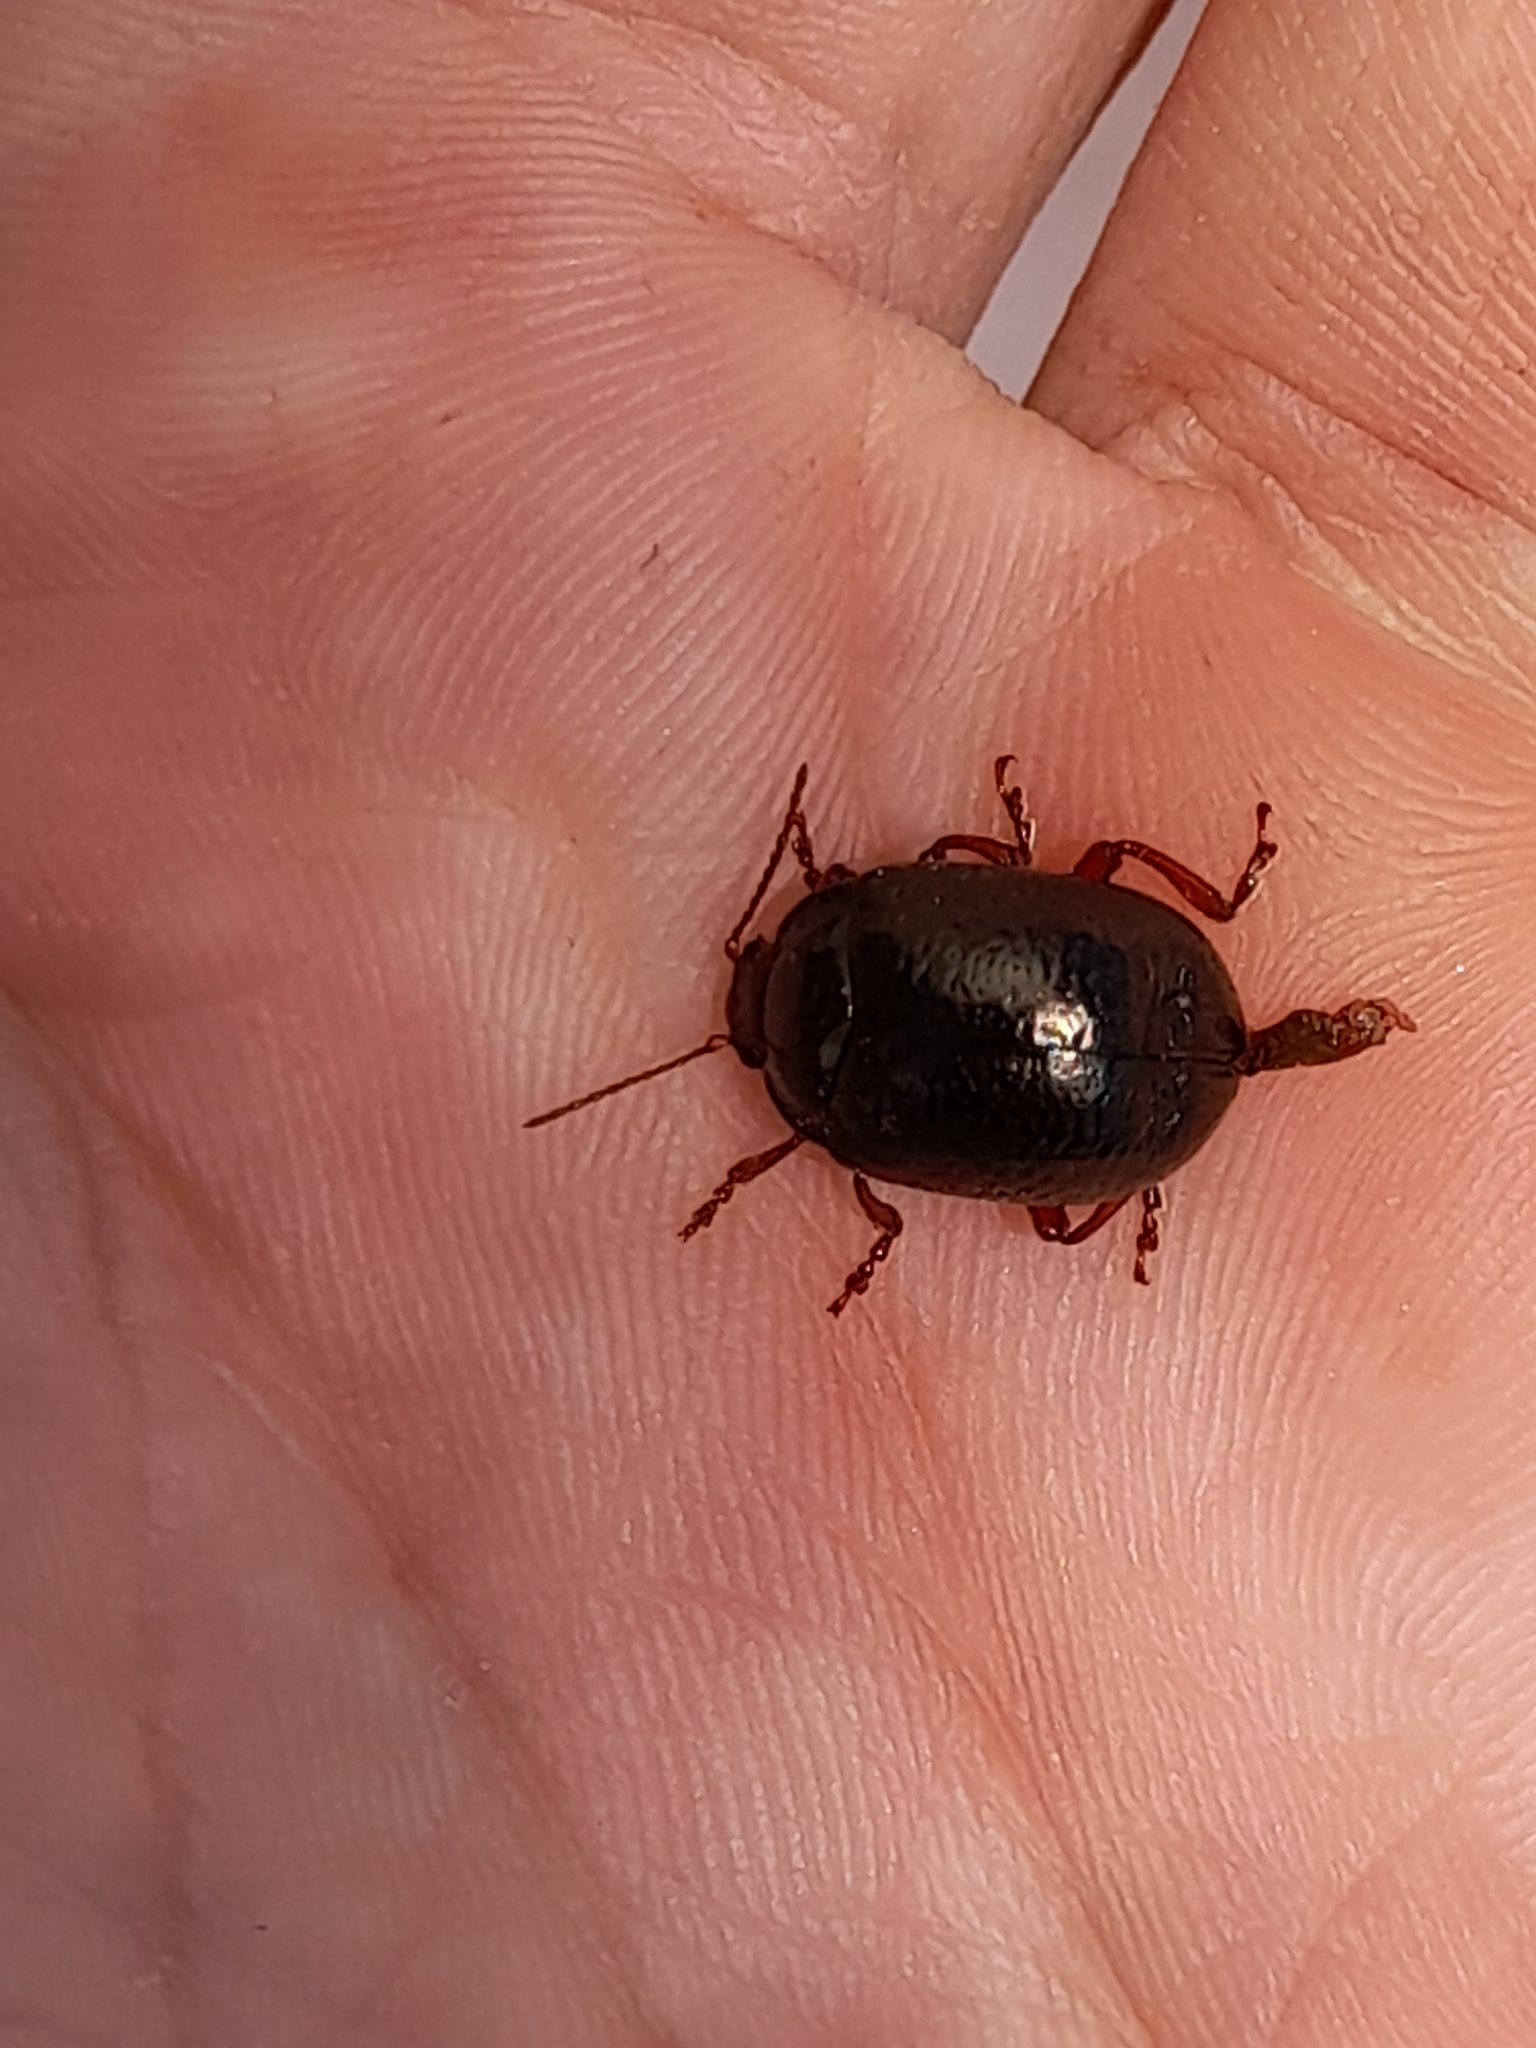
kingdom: Animalia
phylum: Arthropoda
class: Insecta
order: Coleoptera
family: Chrysomelidae
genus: Chrysolina
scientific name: Chrysolina bankii
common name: Leaf beetle
